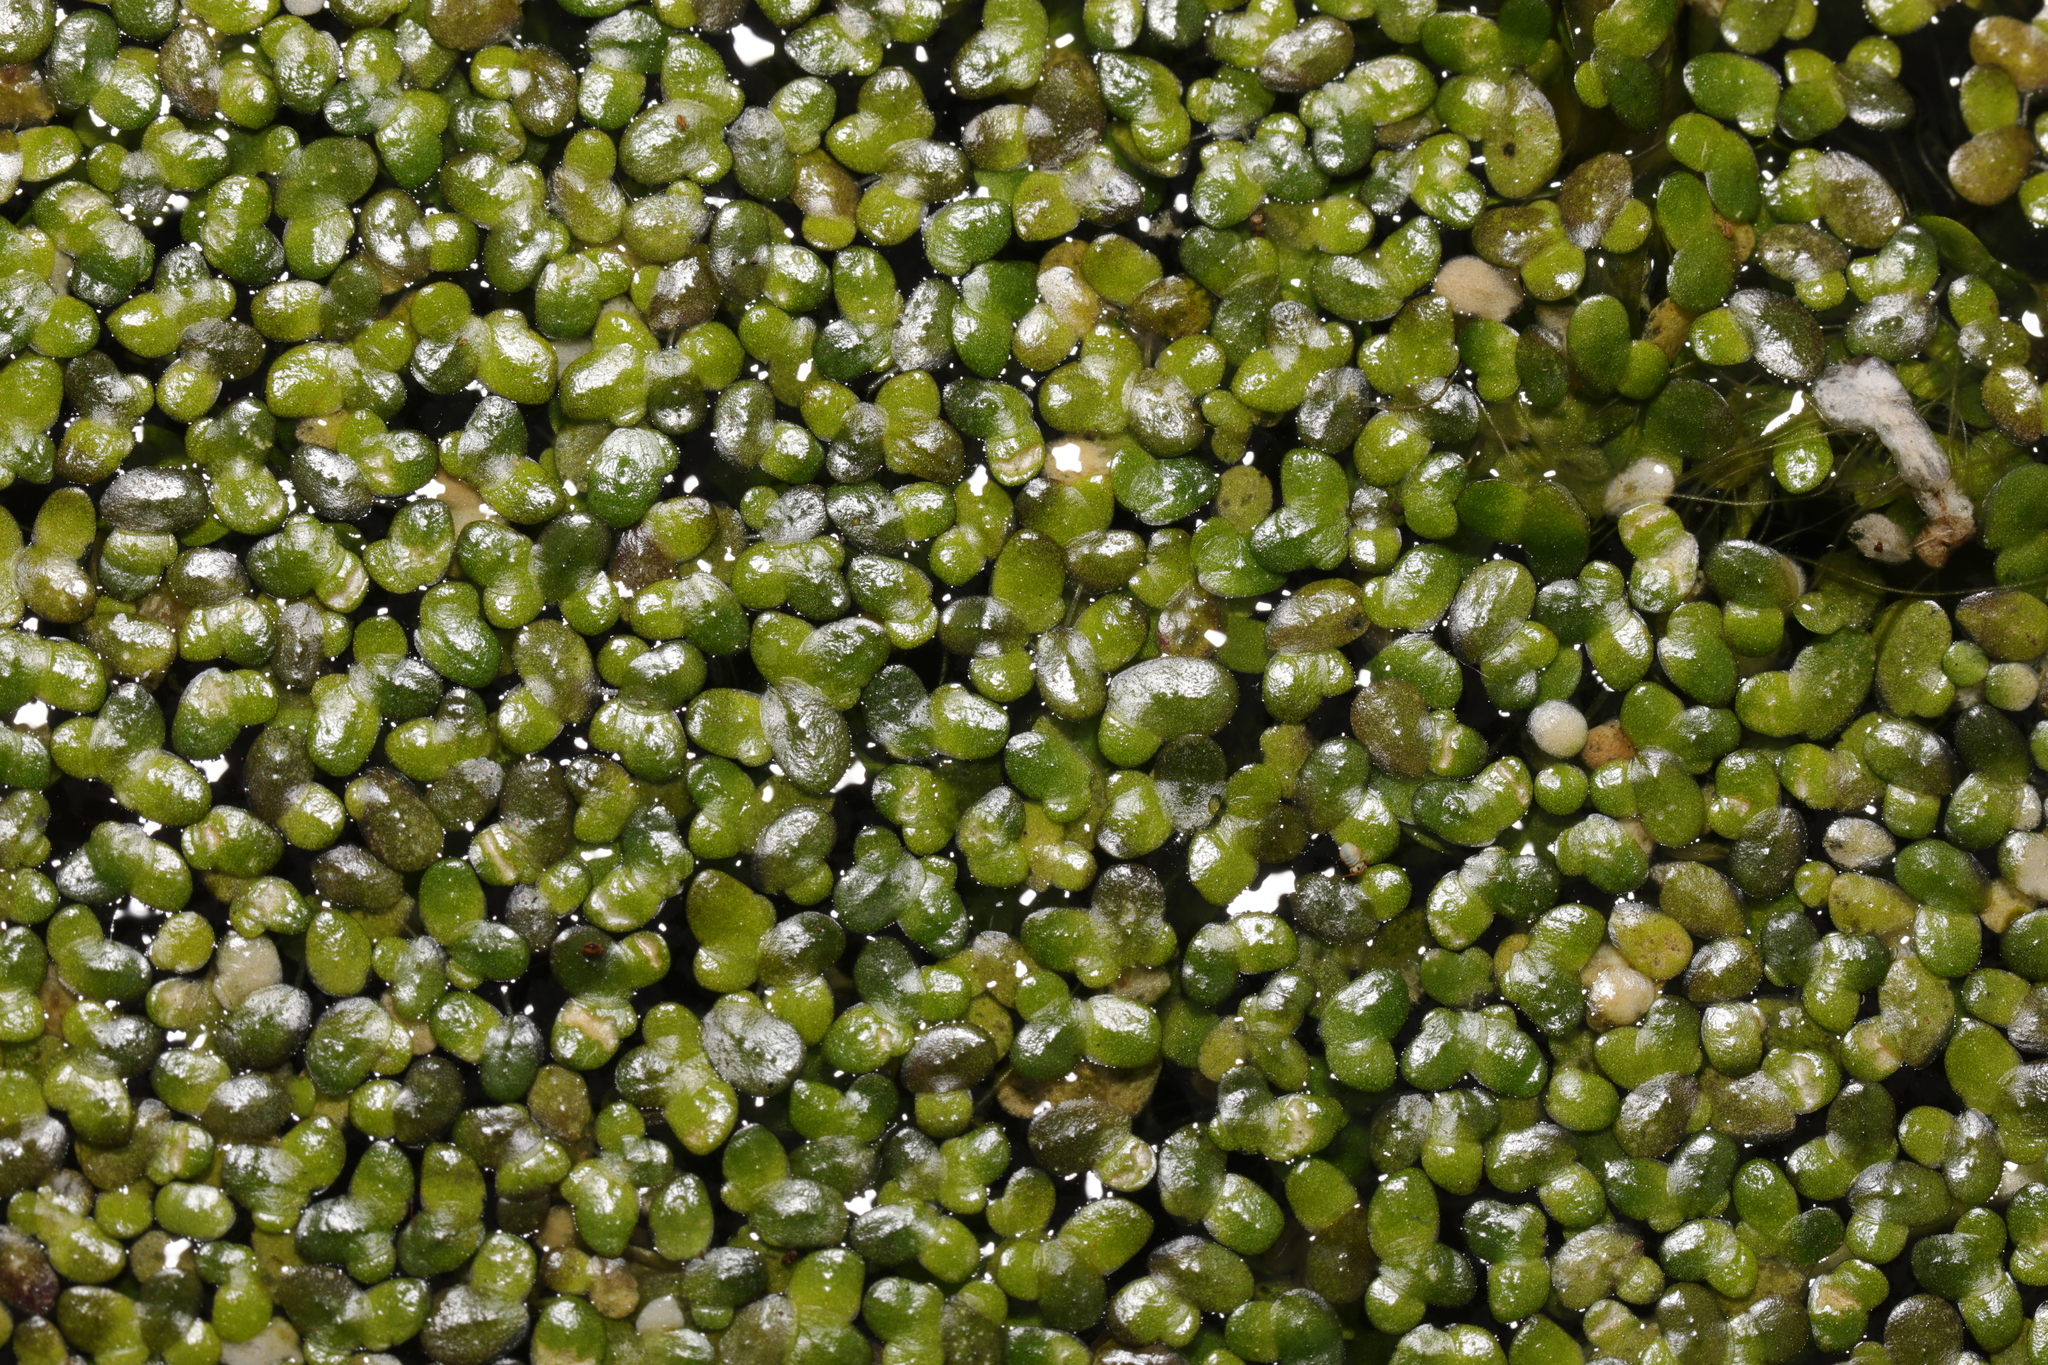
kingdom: Plantae
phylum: Tracheophyta
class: Liliopsida
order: Alismatales
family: Araceae
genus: Lemna
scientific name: Lemna minor
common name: Common duckweed
